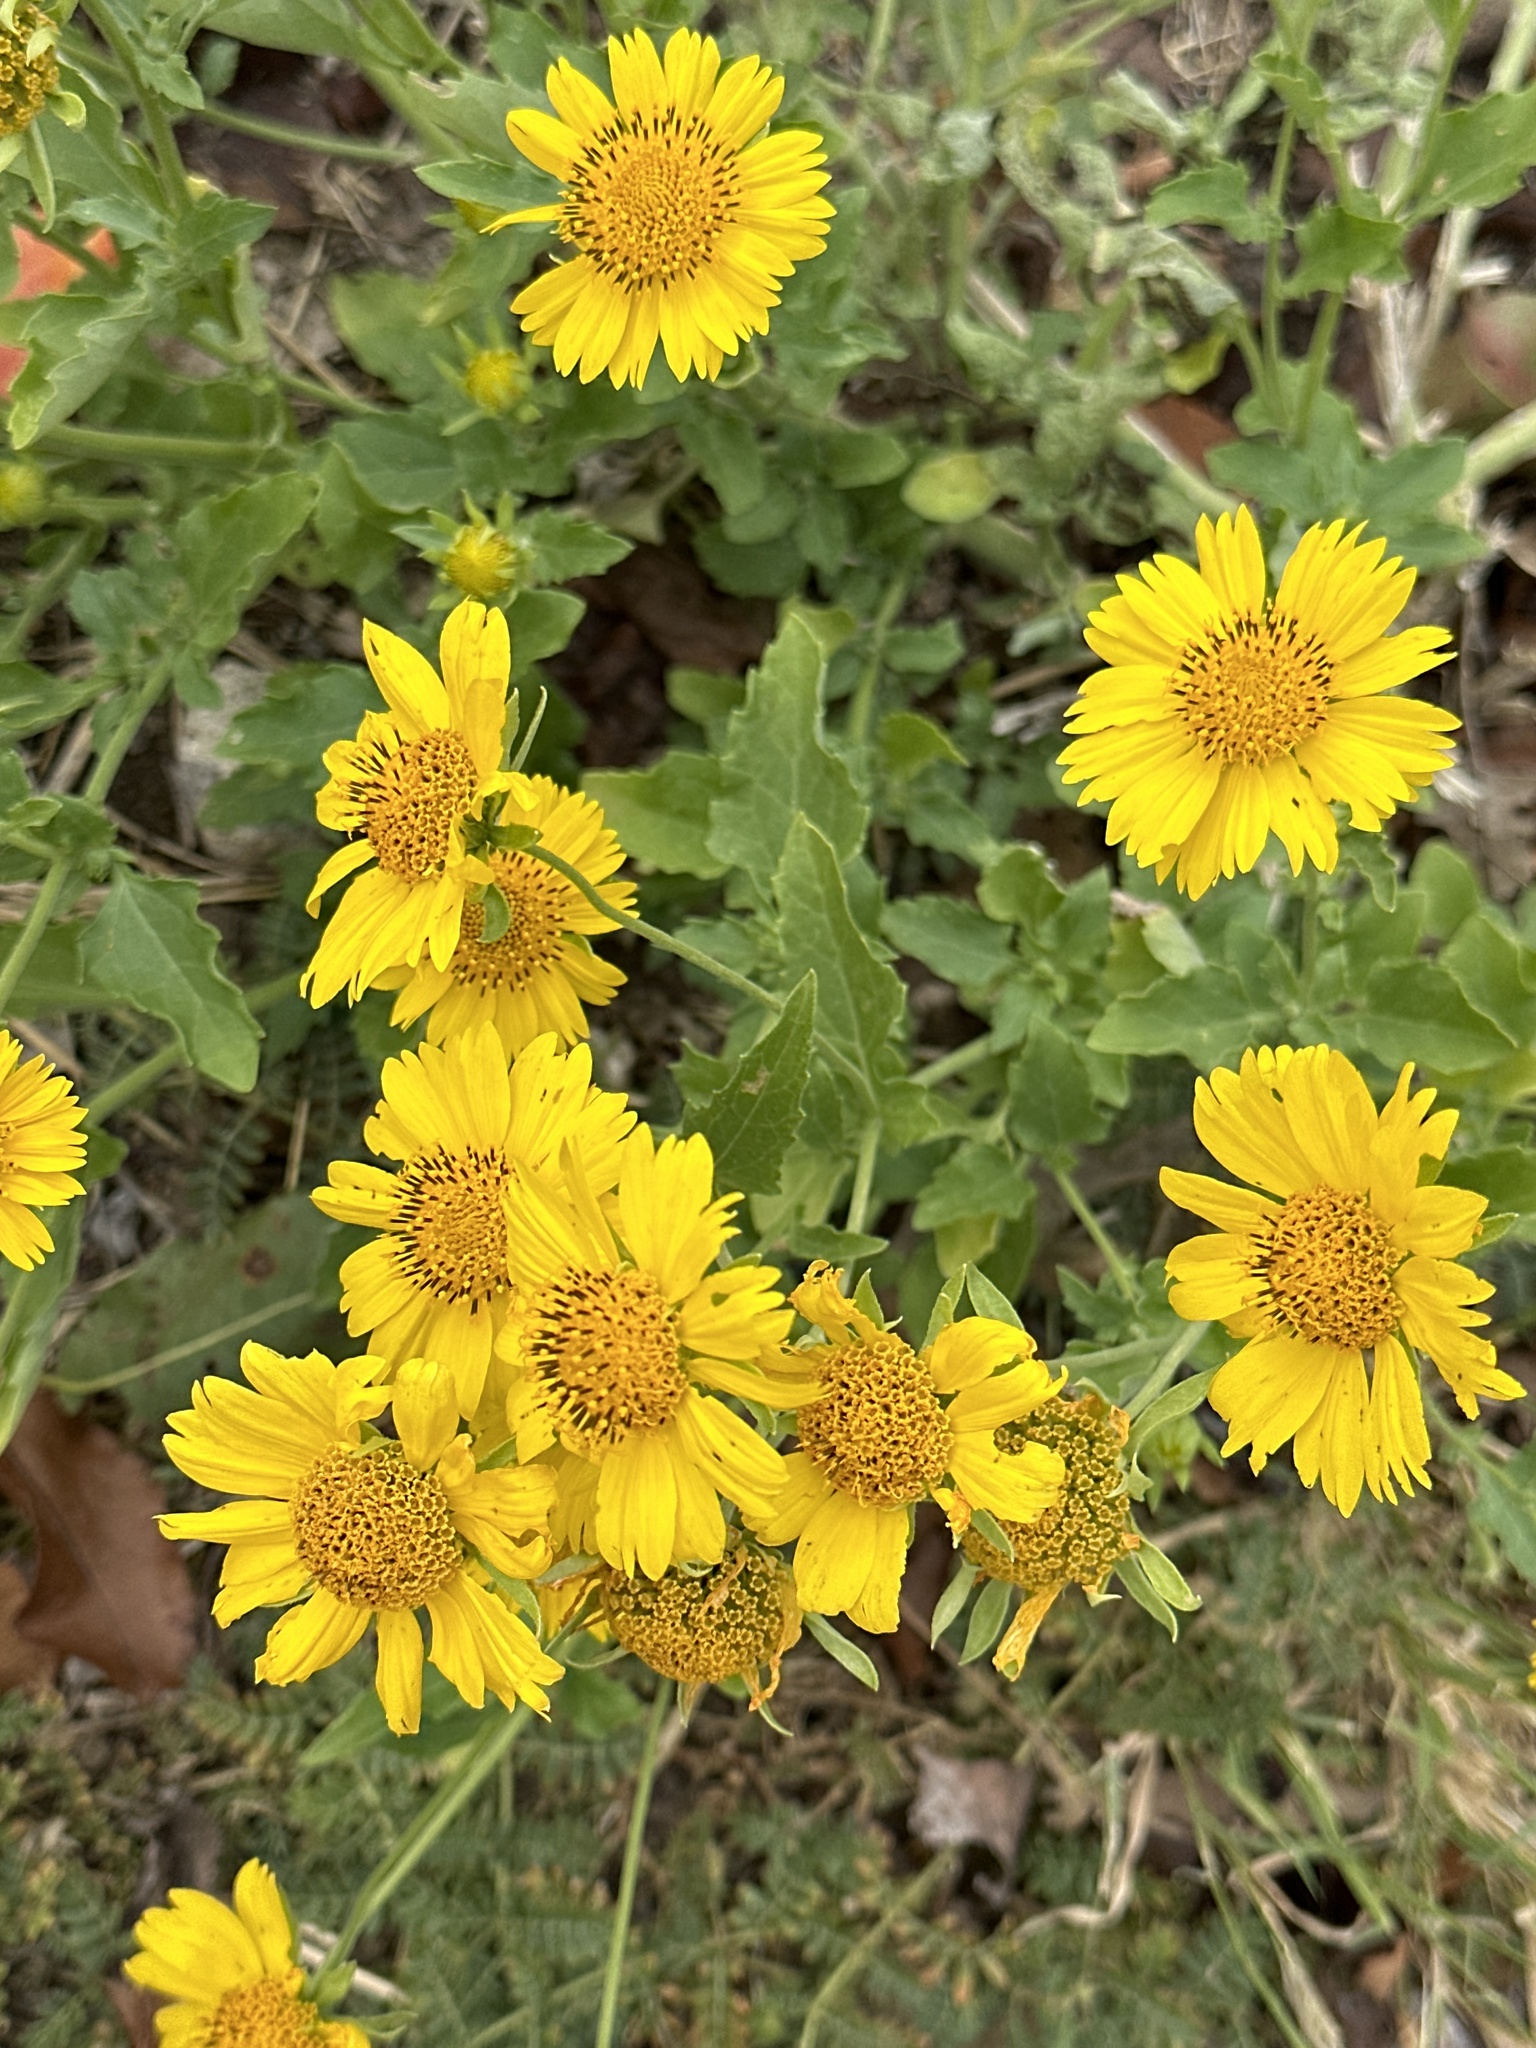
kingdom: Plantae
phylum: Tracheophyta
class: Magnoliopsida
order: Asterales
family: Asteraceae
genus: Verbesina
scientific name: Verbesina encelioides
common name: Golden crownbeard
